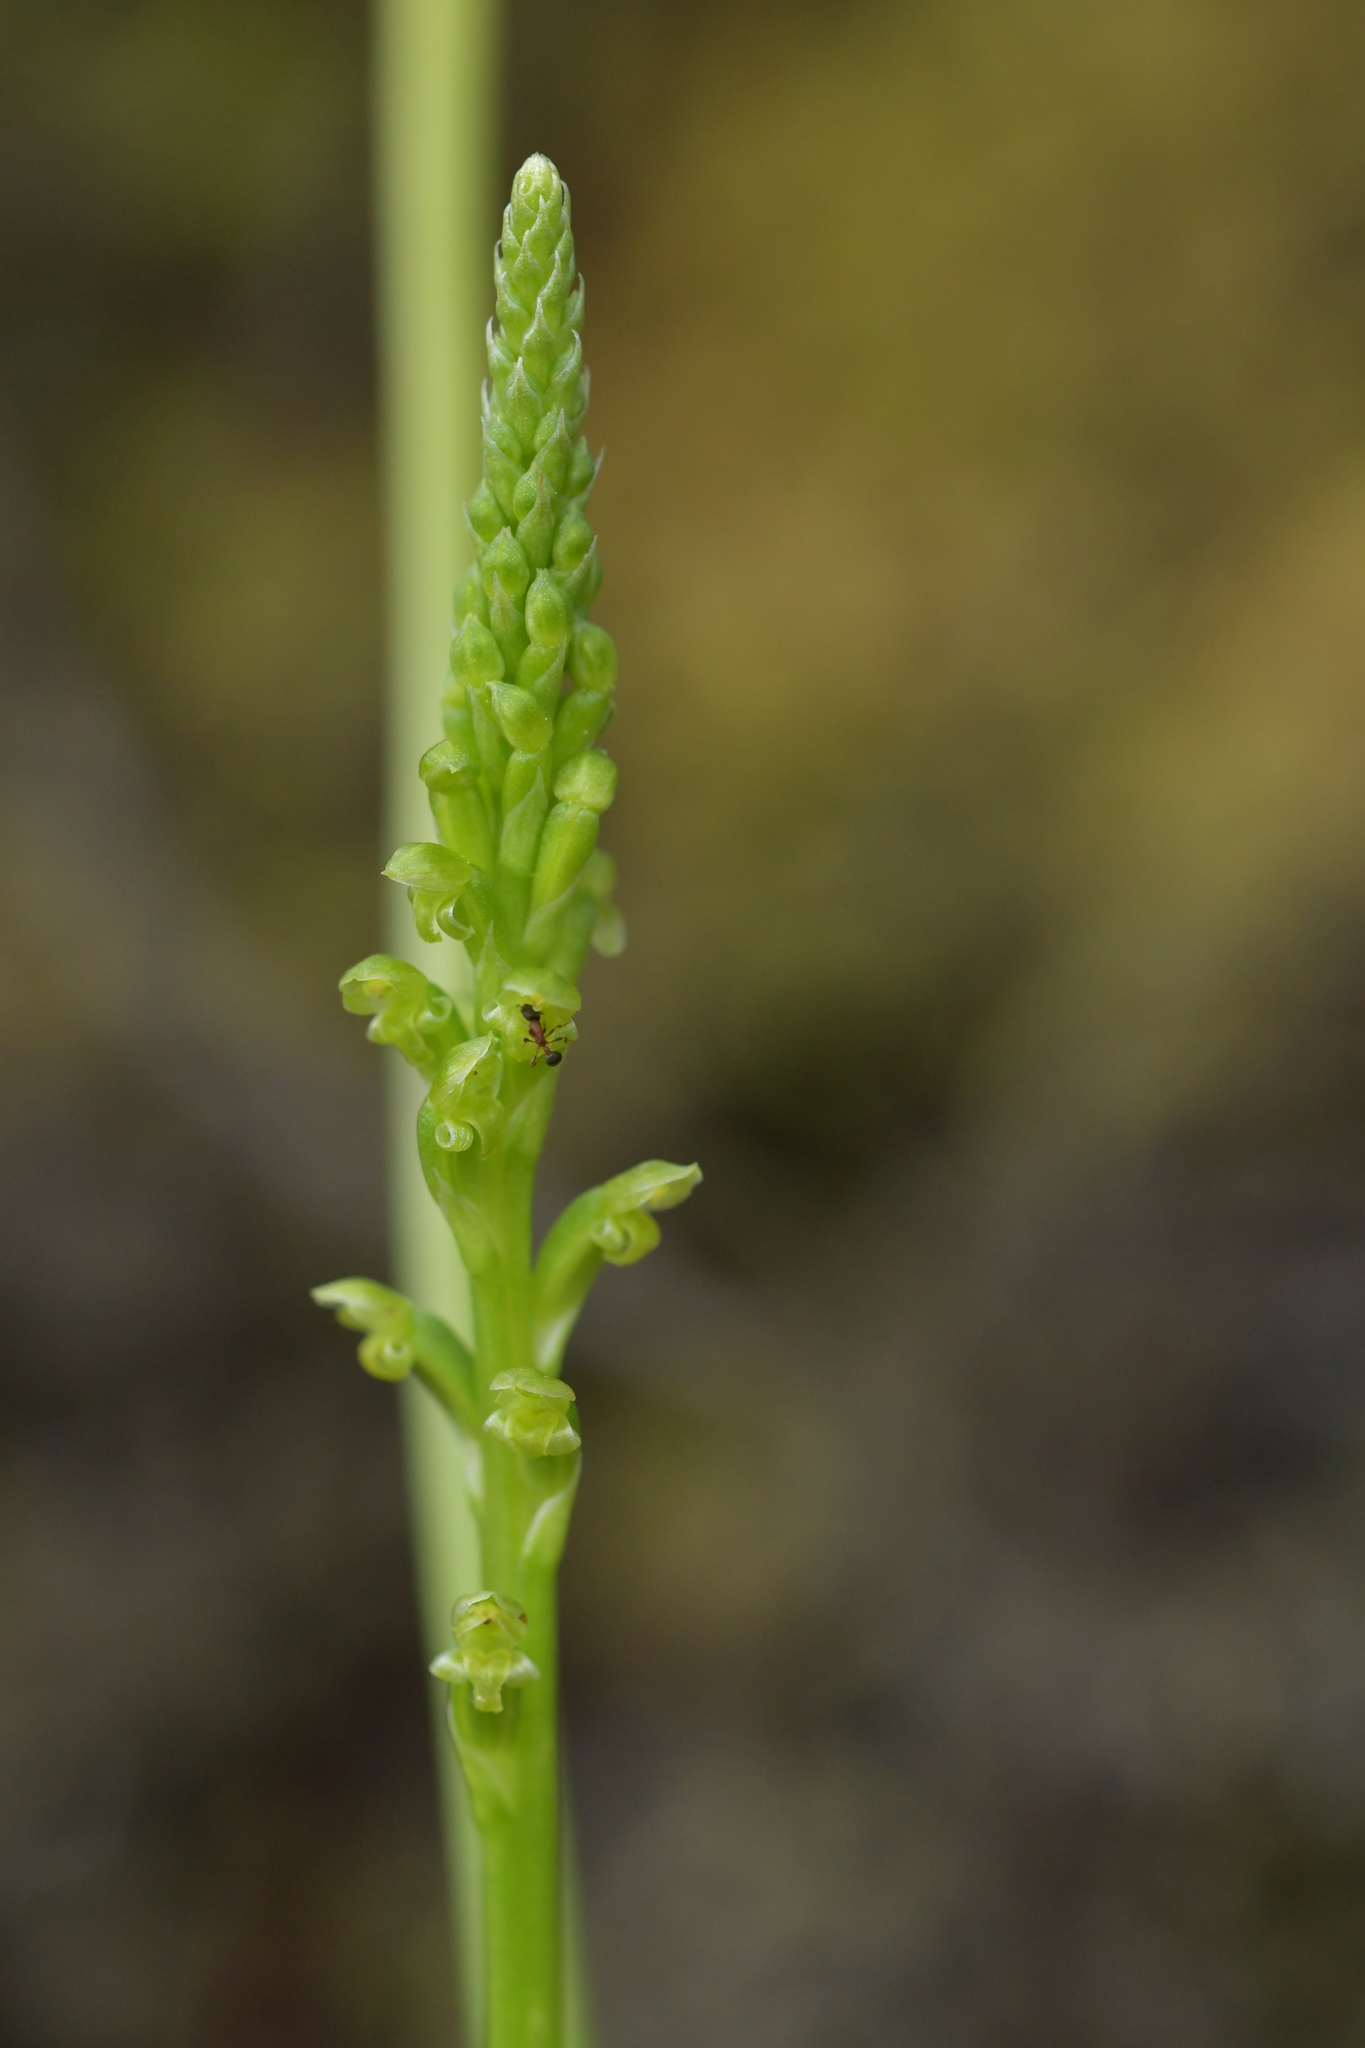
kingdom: Plantae
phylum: Tracheophyta
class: Liliopsida
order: Asparagales
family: Orchidaceae
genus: Microtis
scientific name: Microtis unifolia
